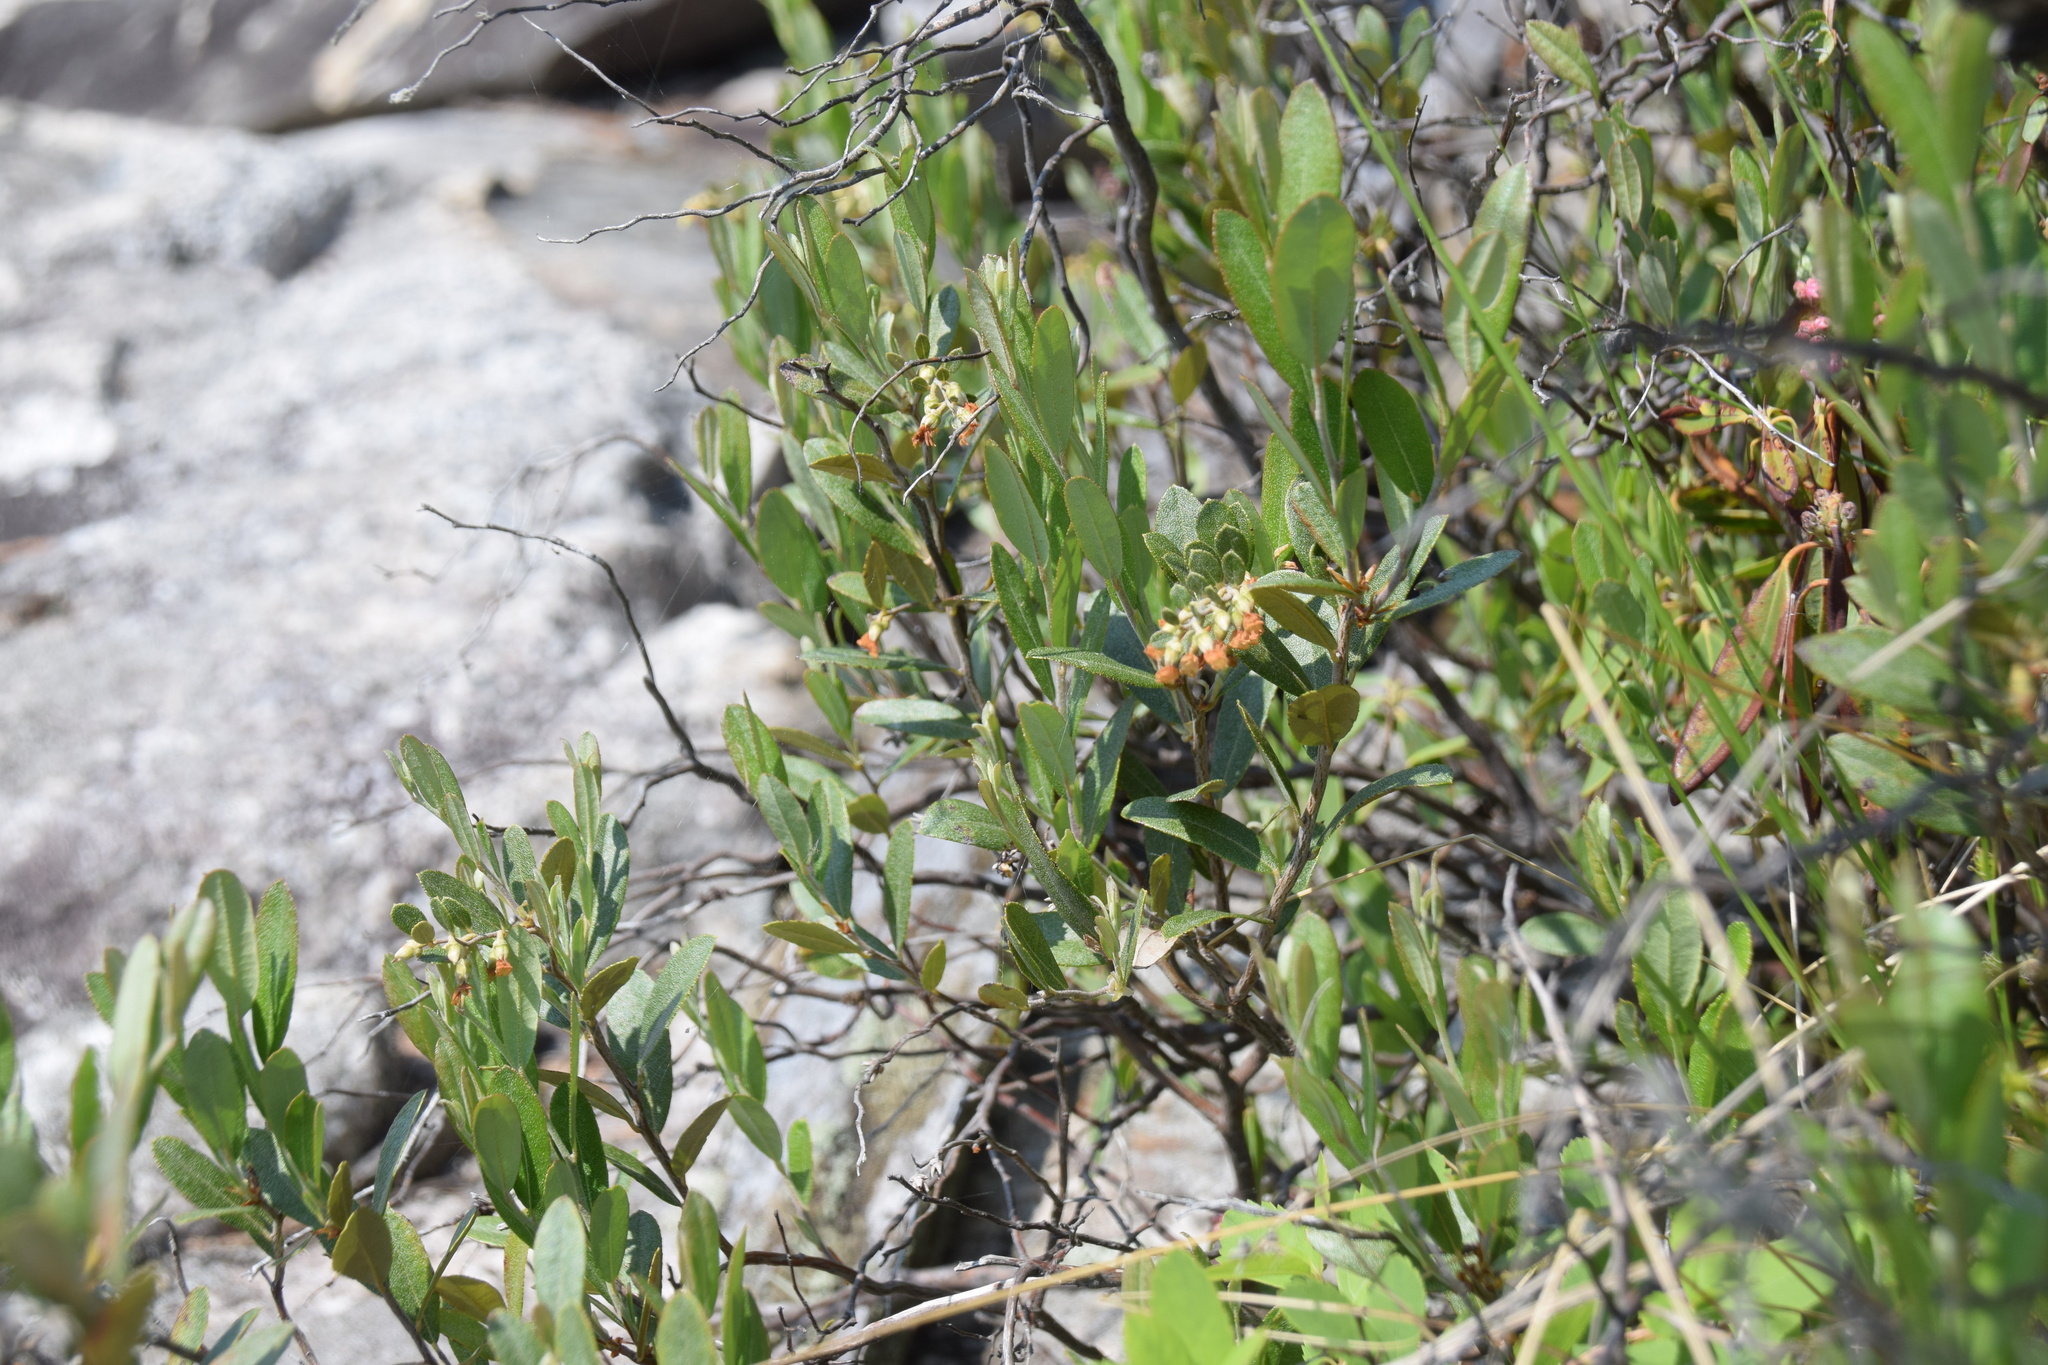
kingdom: Plantae
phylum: Tracheophyta
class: Magnoliopsida
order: Ericales
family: Ericaceae
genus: Chamaedaphne
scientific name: Chamaedaphne calyculata
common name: Leatherleaf
